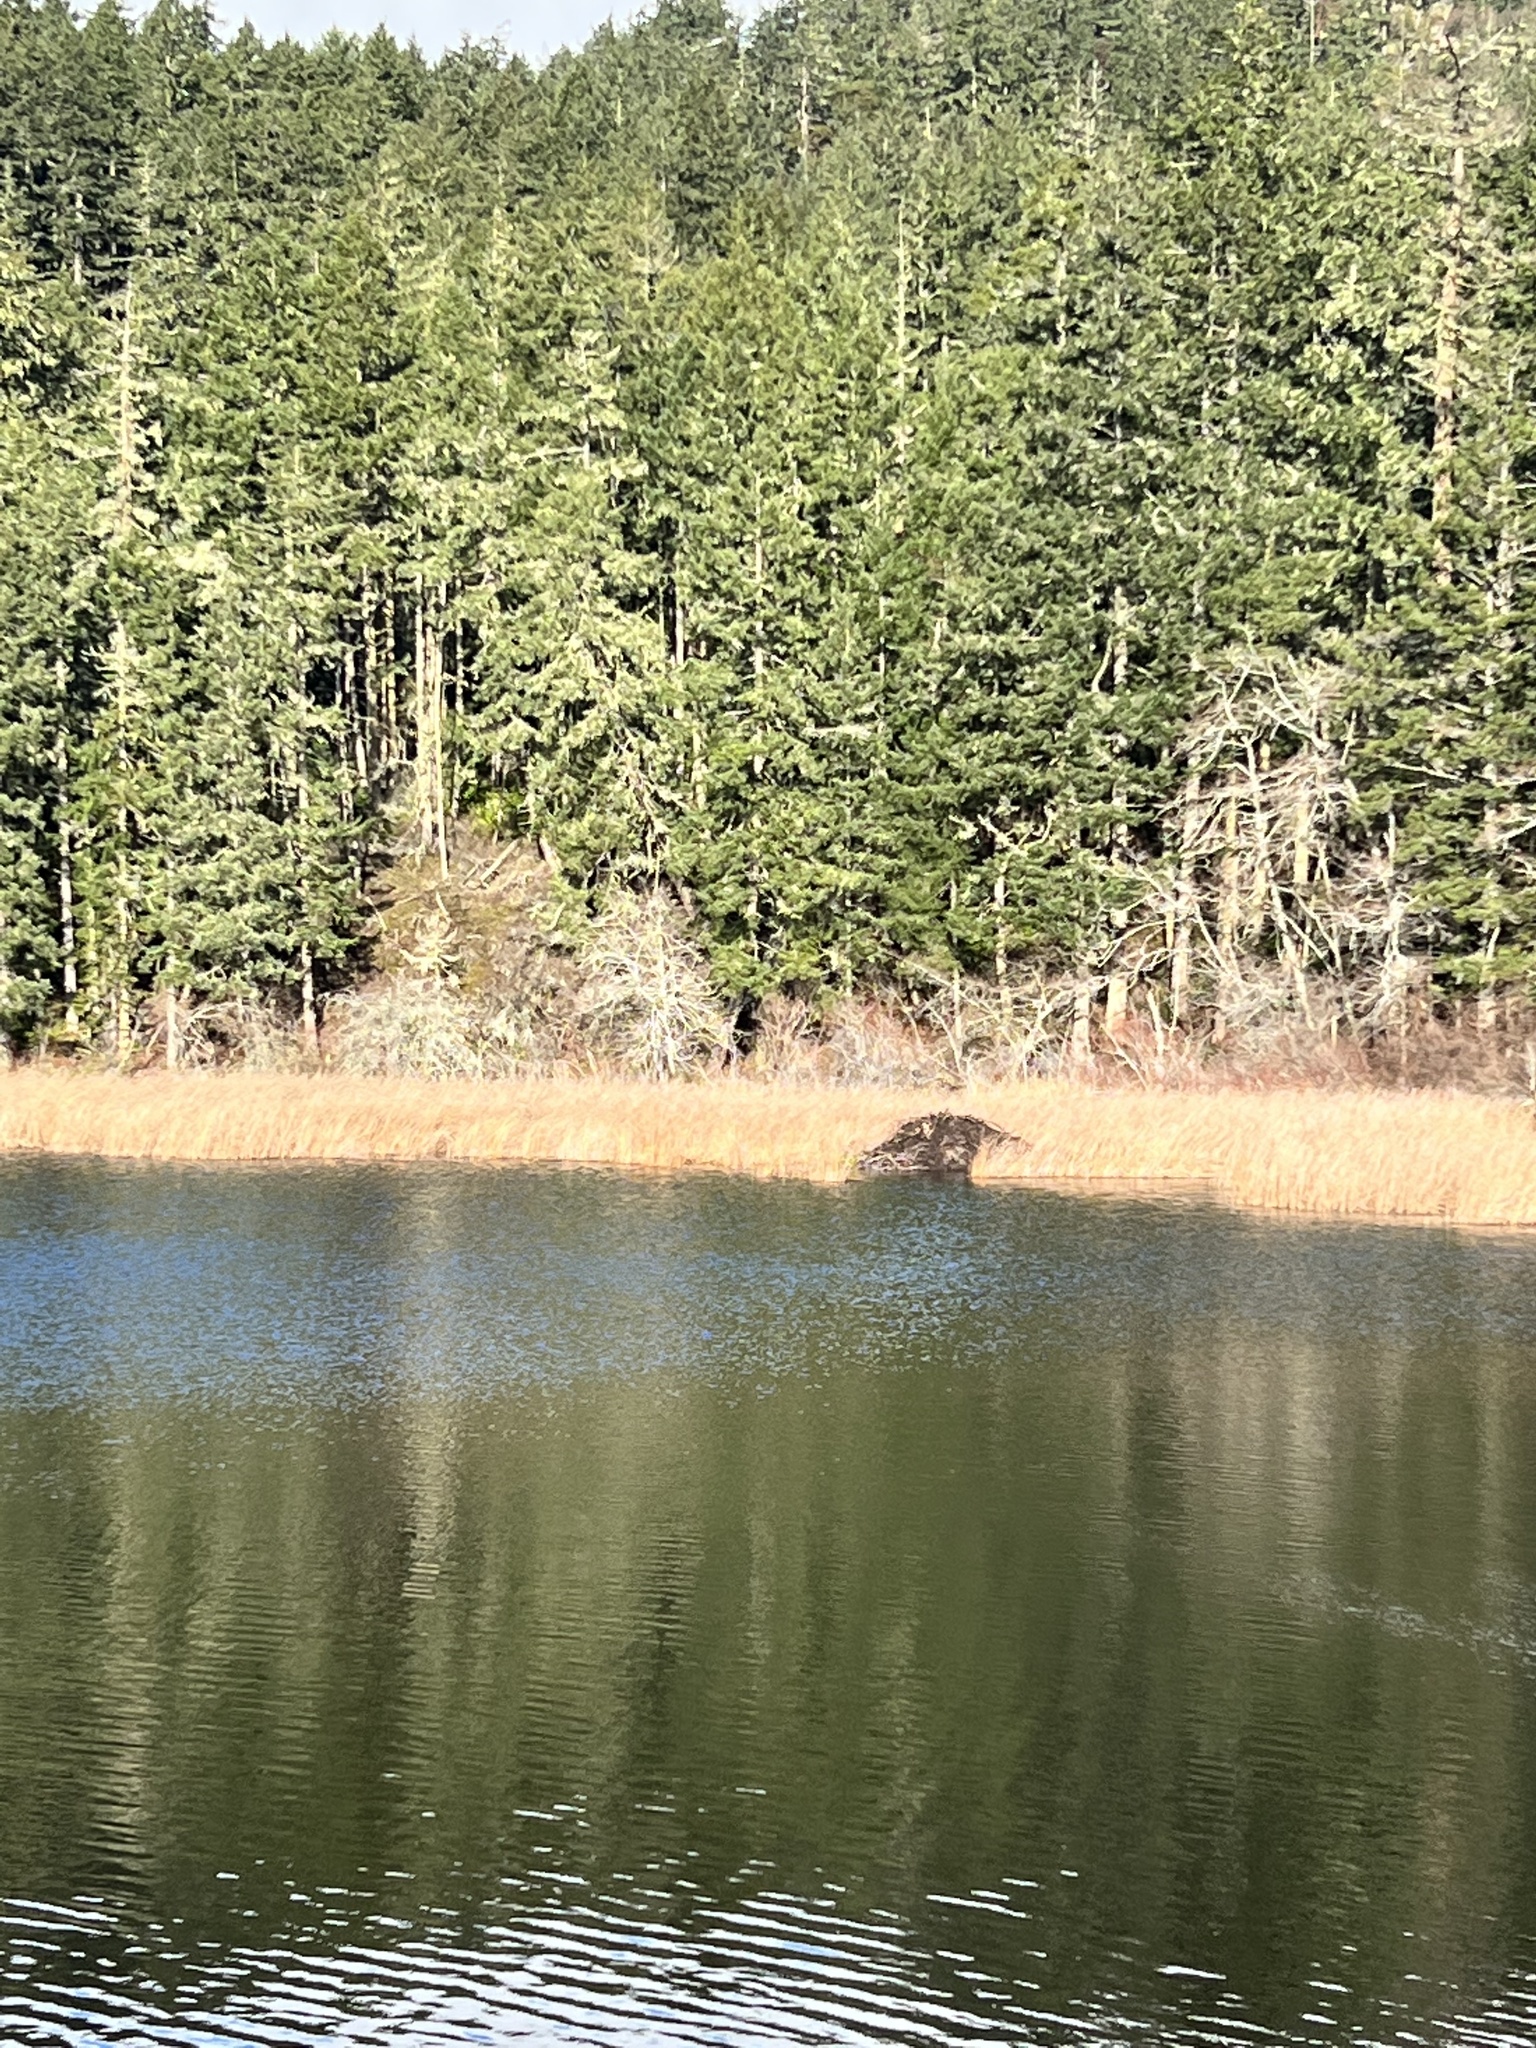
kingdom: Animalia
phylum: Chordata
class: Mammalia
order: Rodentia
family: Castoridae
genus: Castor
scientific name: Castor canadensis
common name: American beaver
